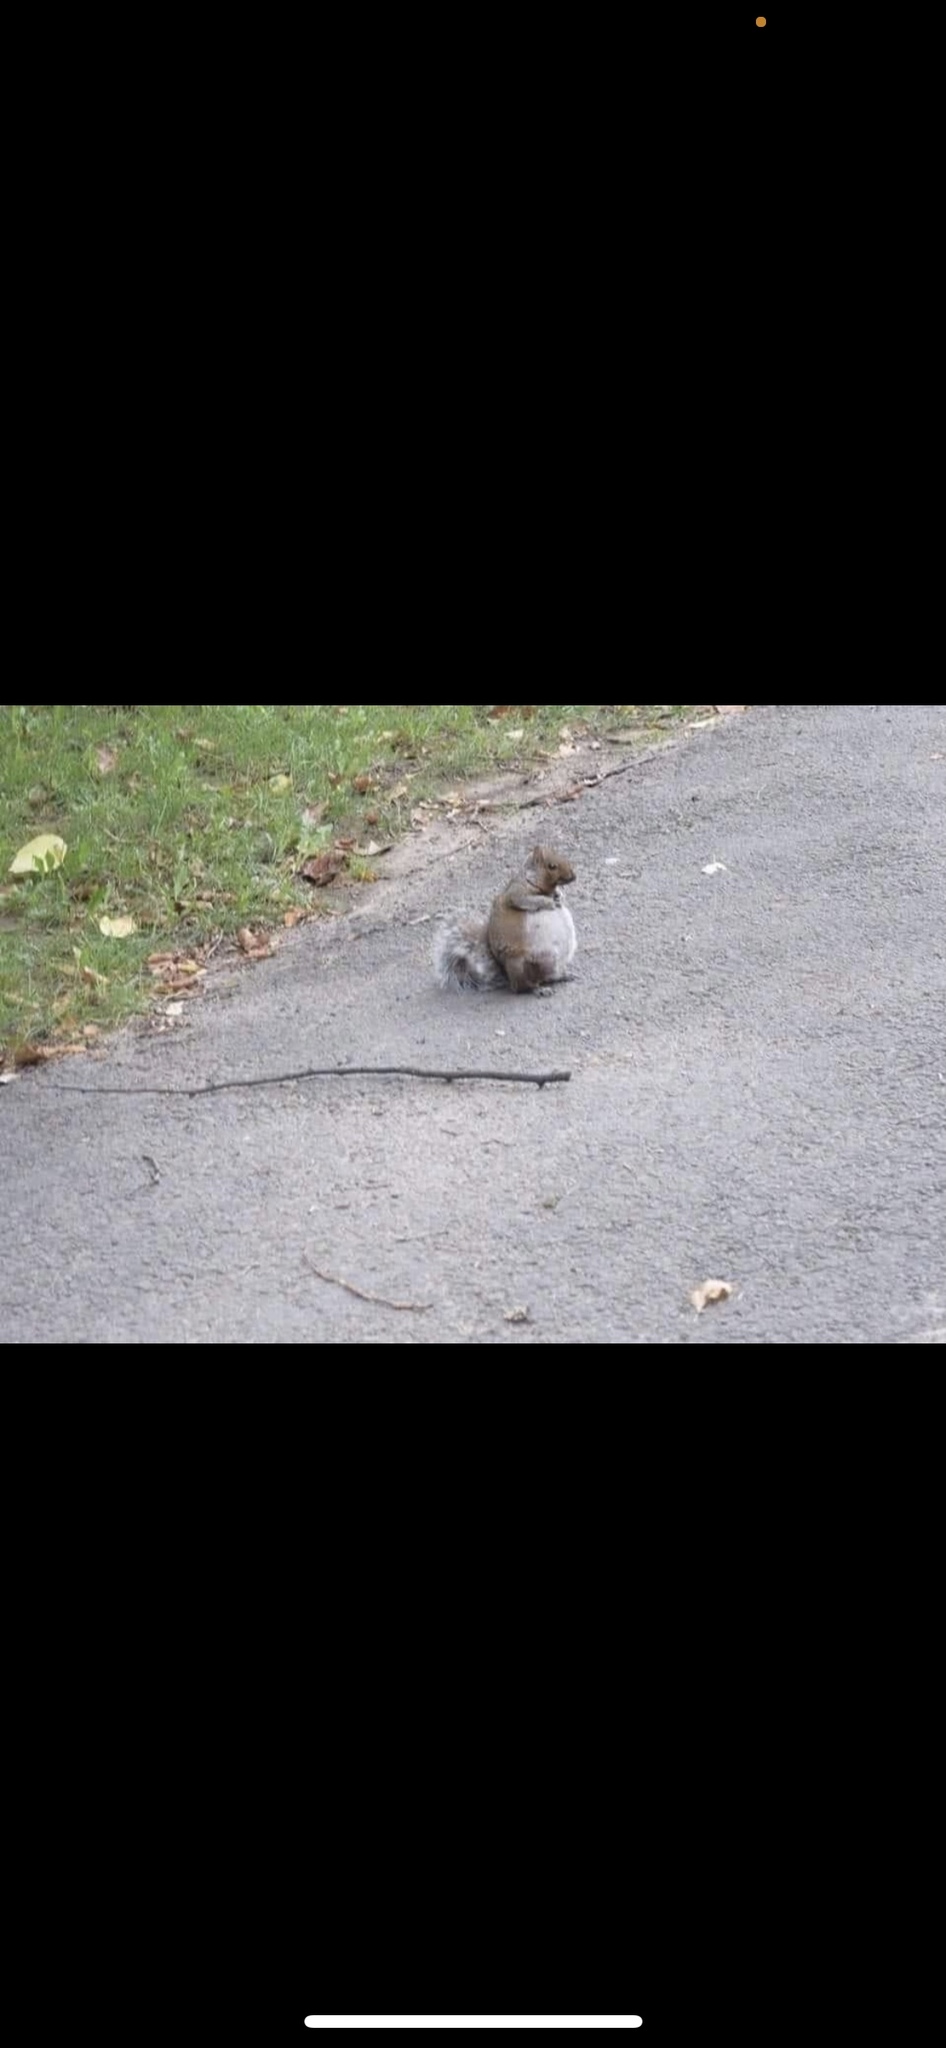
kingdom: Animalia
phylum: Chordata
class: Mammalia
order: Rodentia
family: Sciuridae
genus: Sciurus
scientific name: Sciurus carolinensis
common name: Eastern gray squirrel
